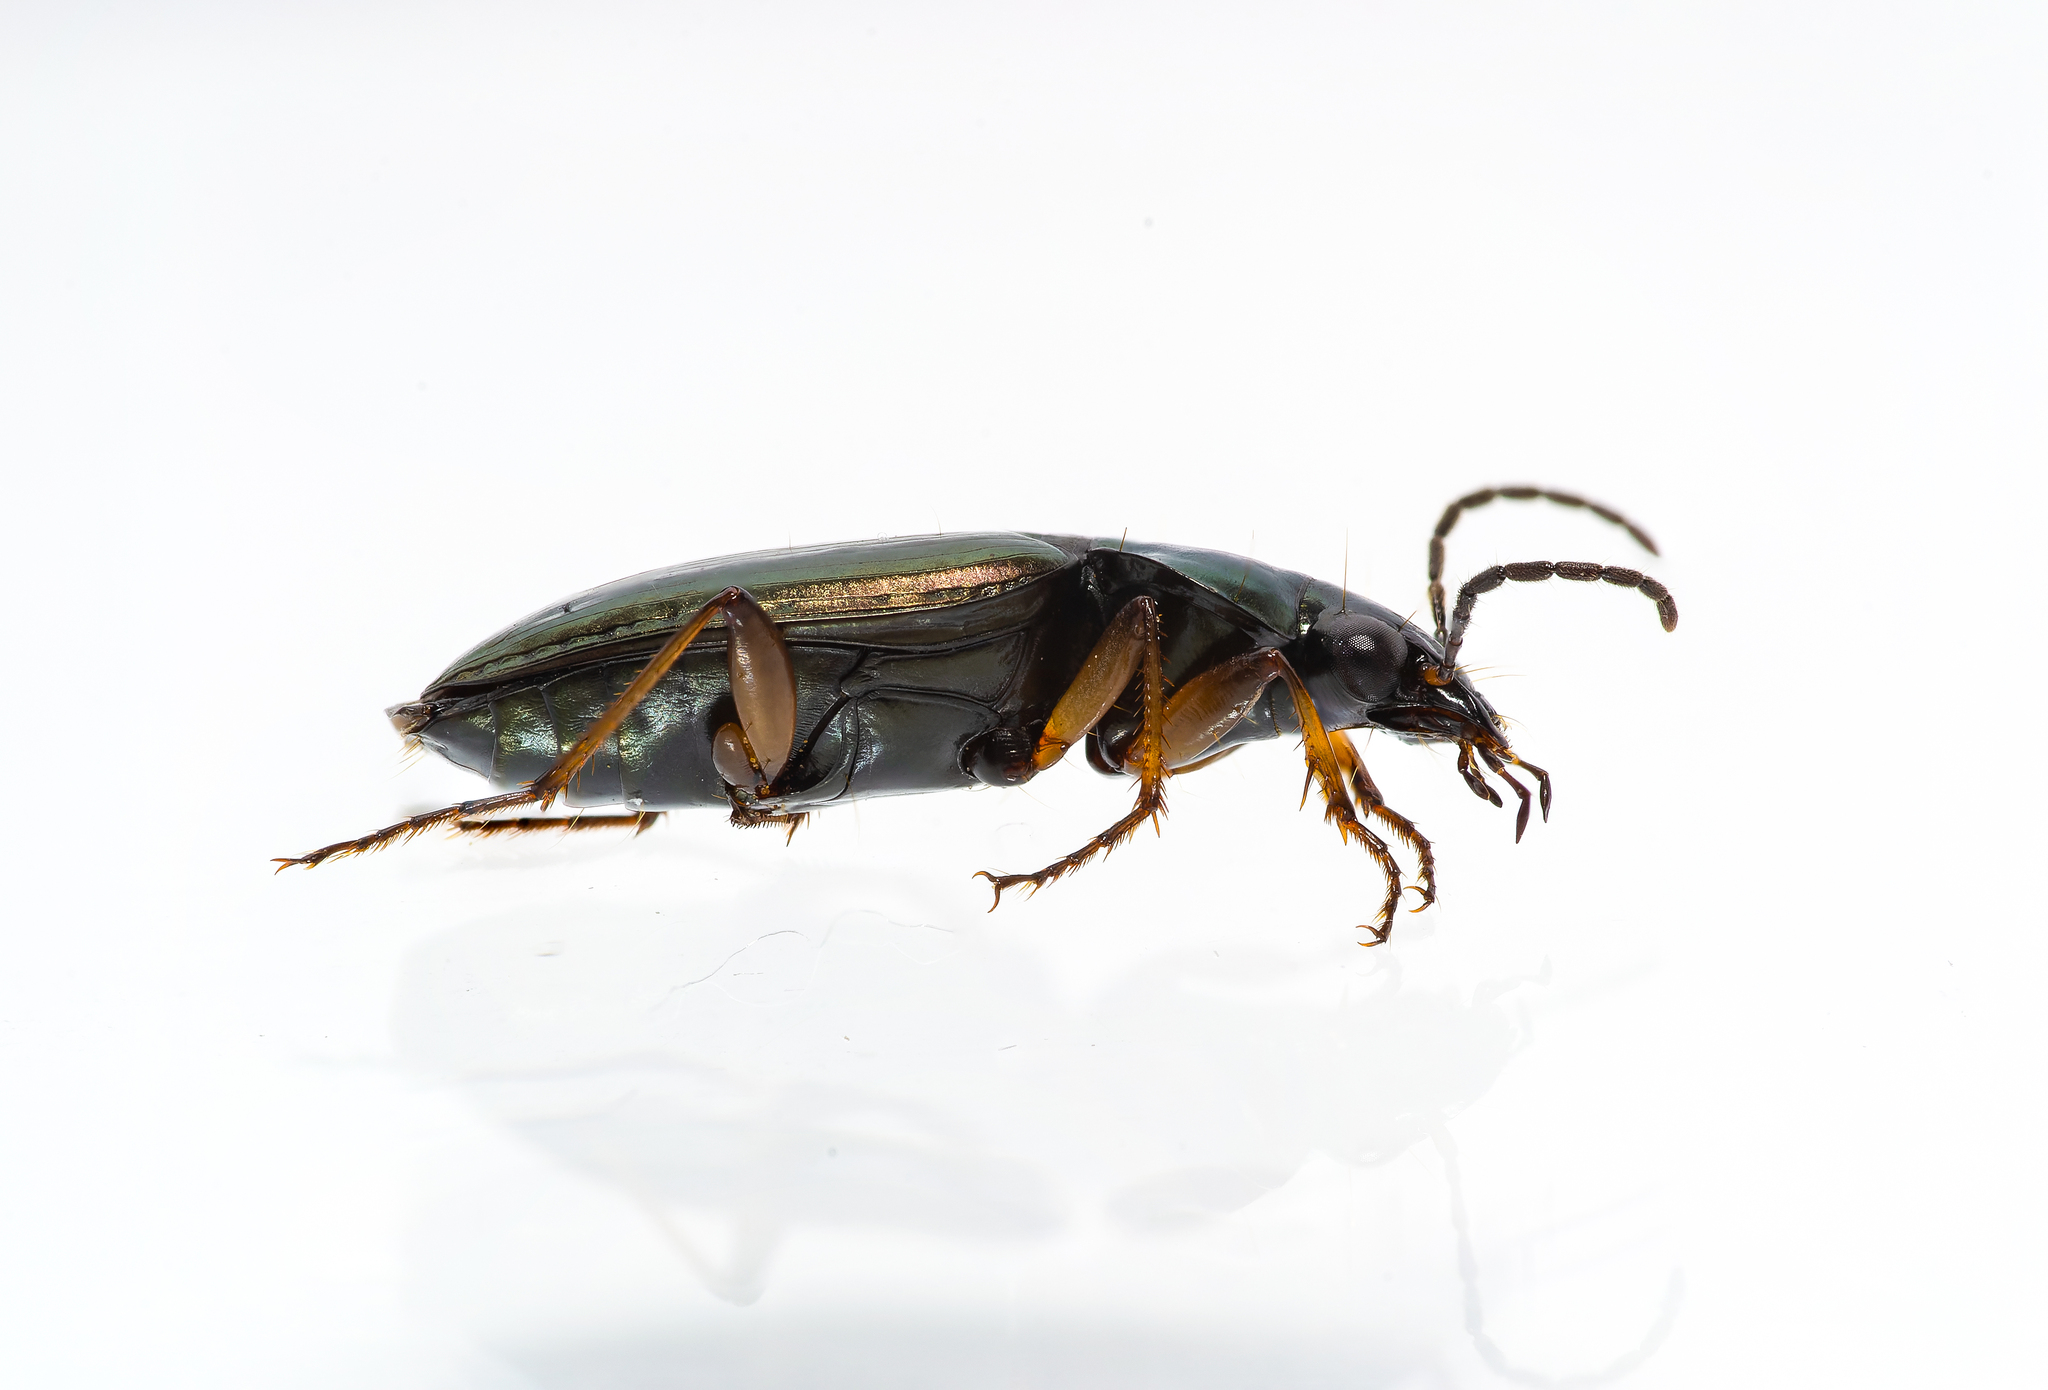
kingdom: Animalia
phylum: Arthropoda
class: Insecta
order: Coleoptera
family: Carabidae
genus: Agonum
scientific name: Agonum muelleri
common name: Müller's harp ground beetle
